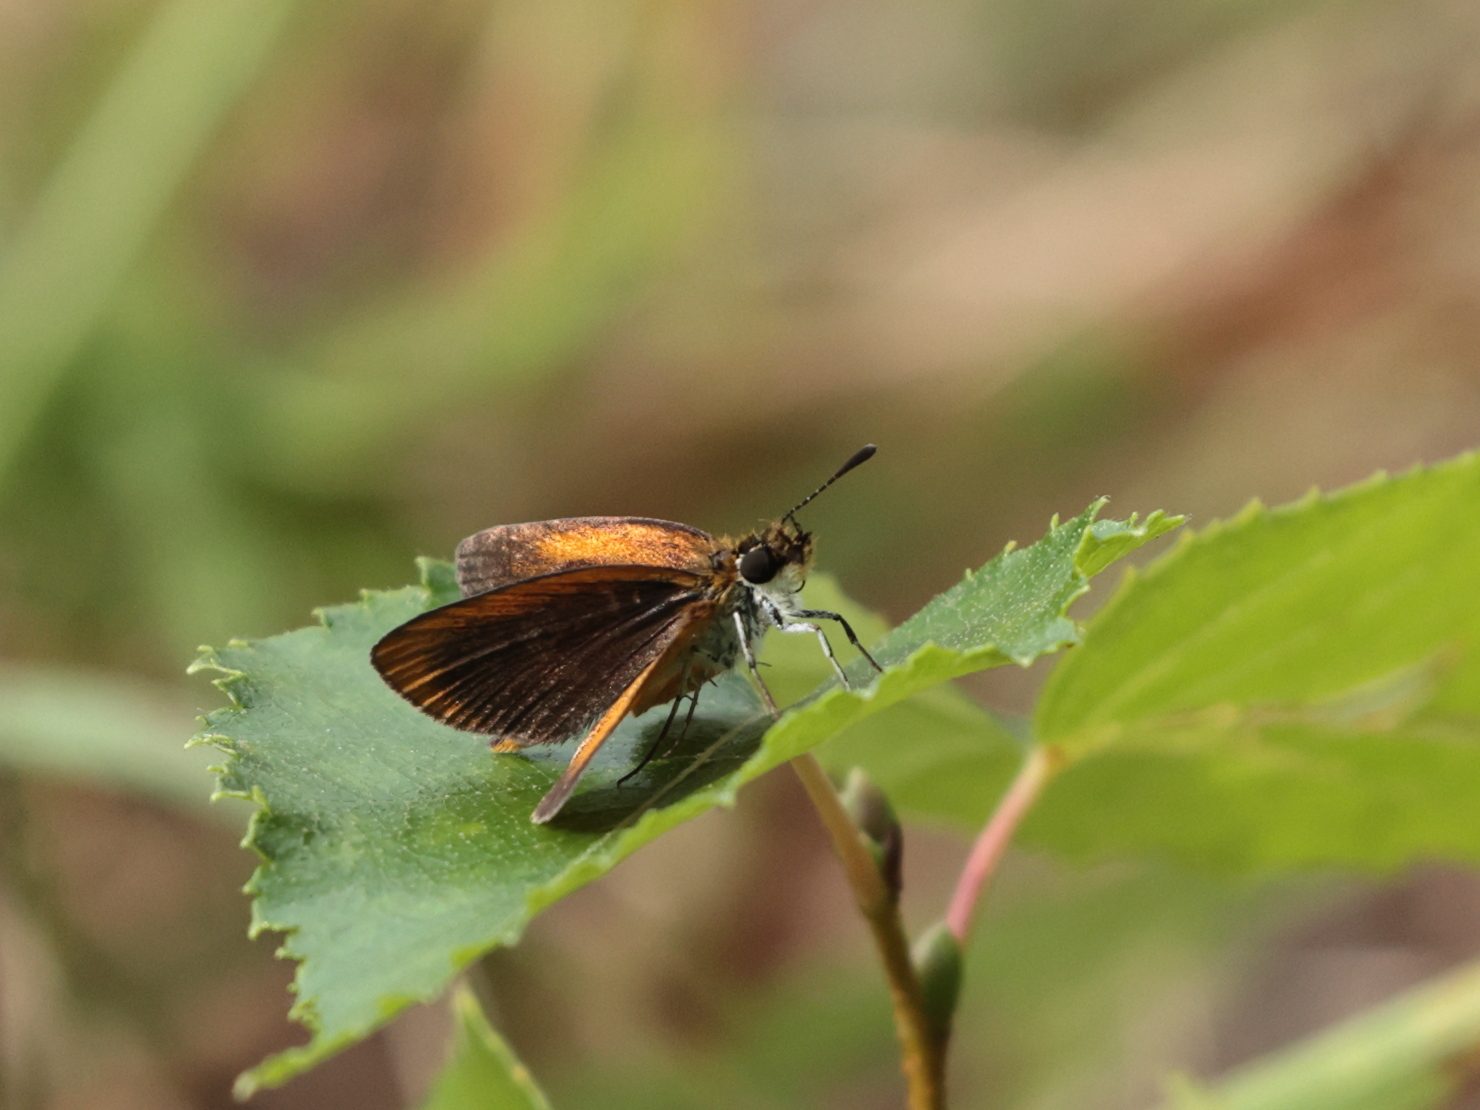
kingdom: Animalia
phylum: Arthropoda
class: Insecta
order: Lepidoptera
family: Hesperiidae
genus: Ancyloxypha
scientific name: Ancyloxypha numitor
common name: Least skipper
